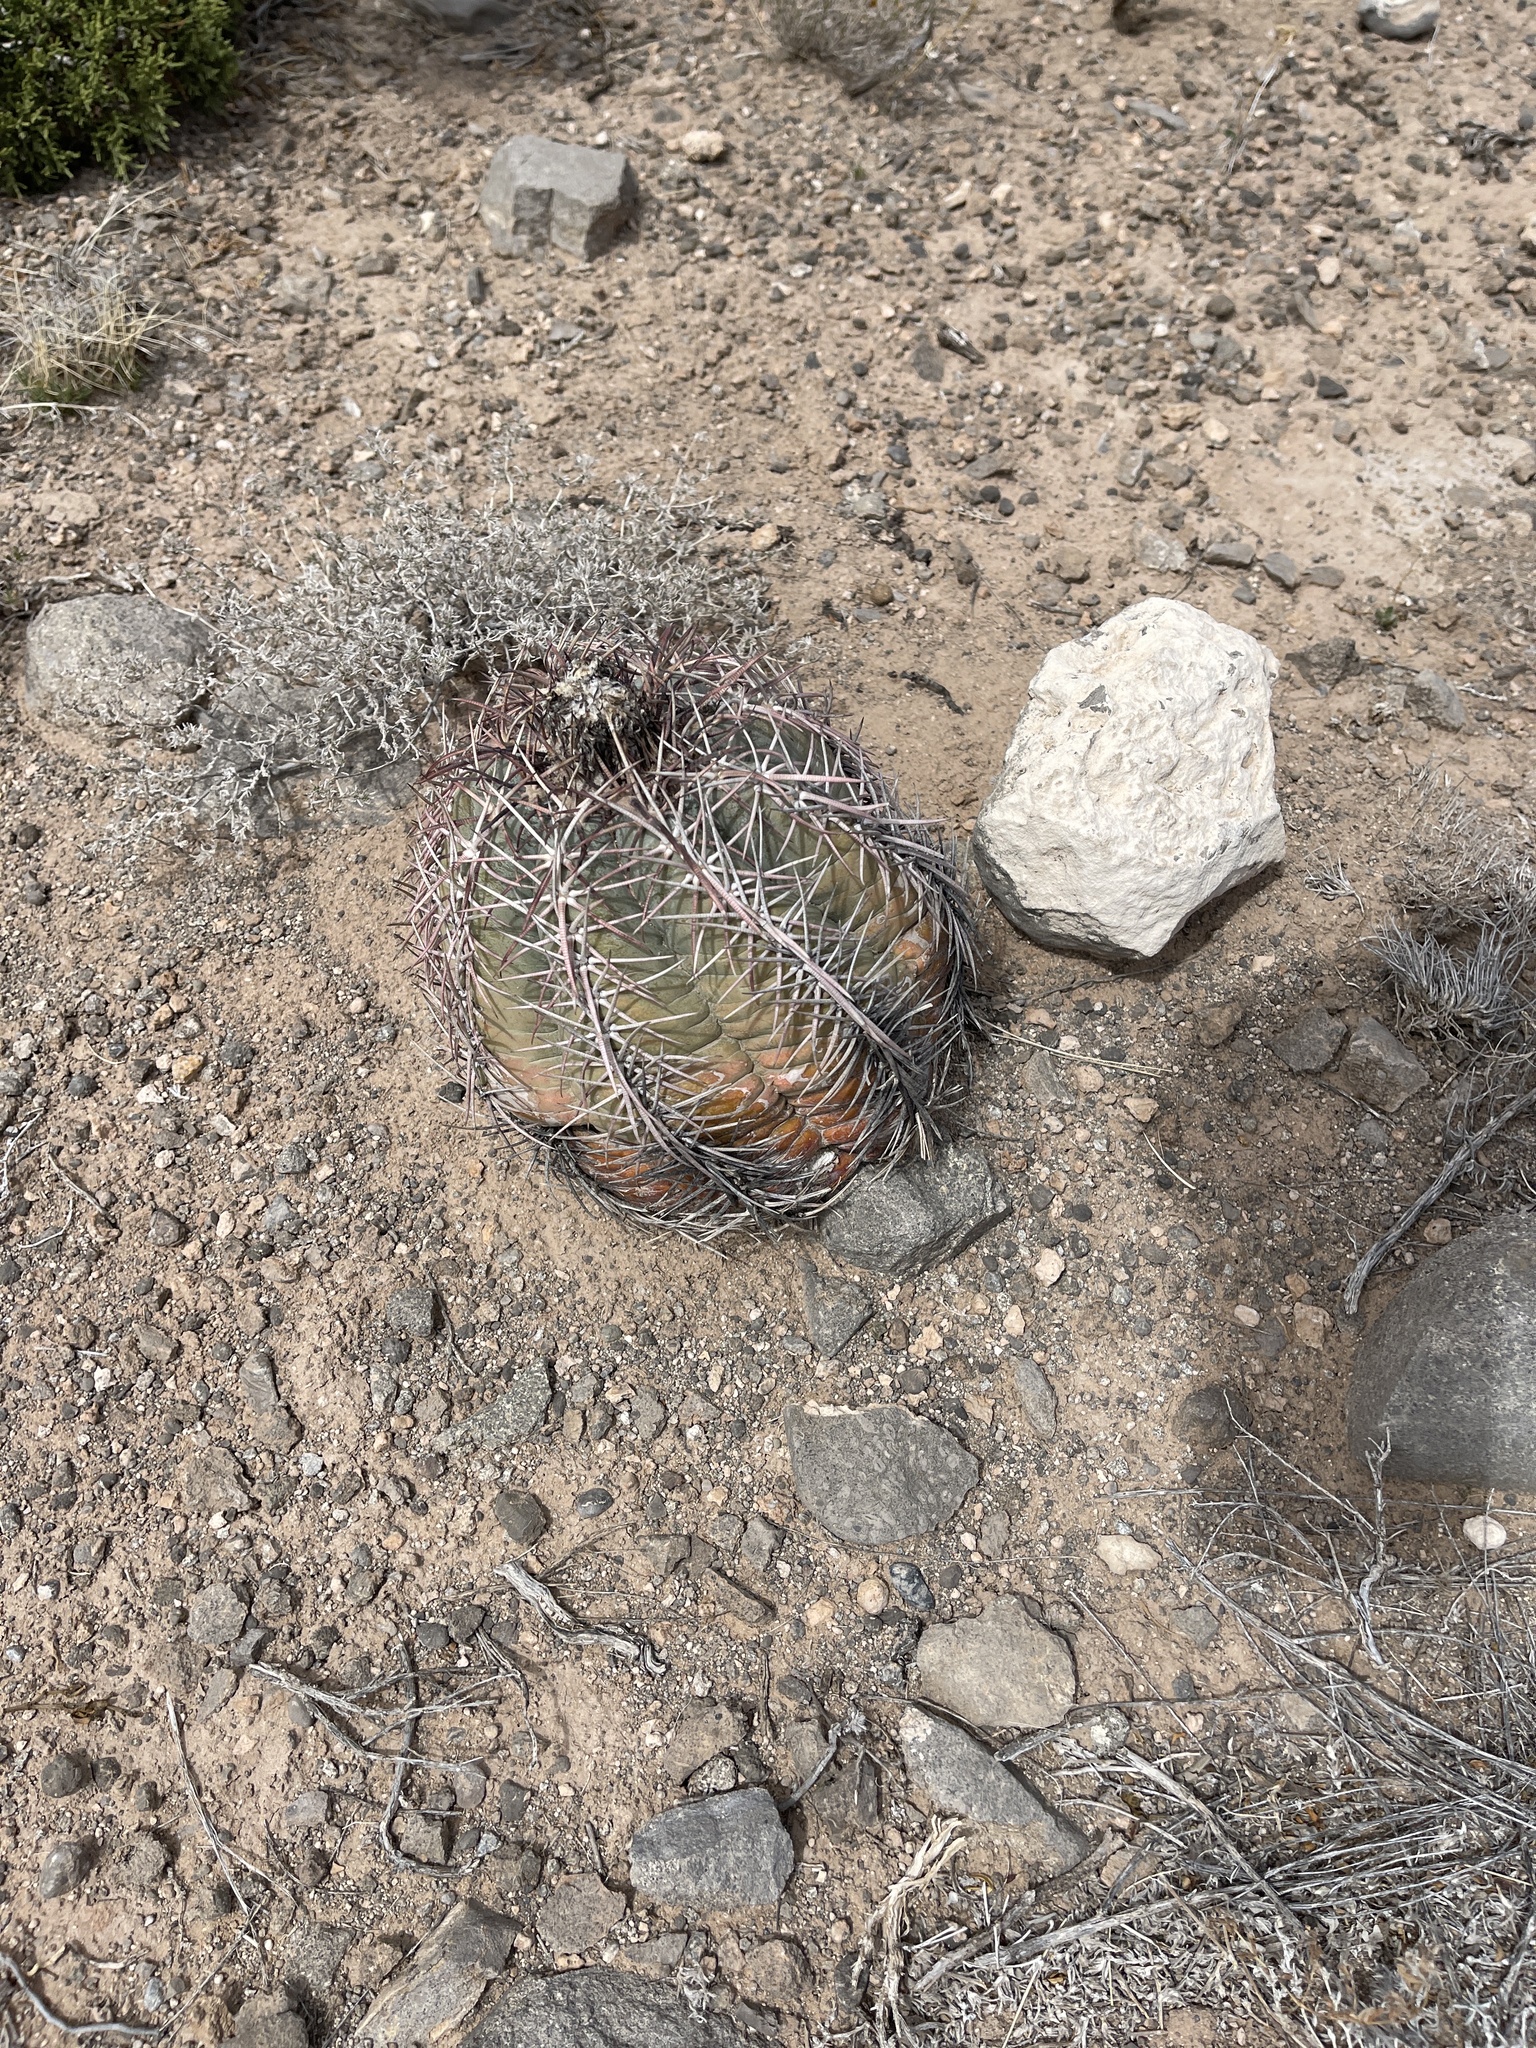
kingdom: Plantae
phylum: Tracheophyta
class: Magnoliopsida
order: Caryophyllales
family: Cactaceae
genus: Echinocactus
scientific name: Echinocactus horizonthalonius
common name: Devilshead
